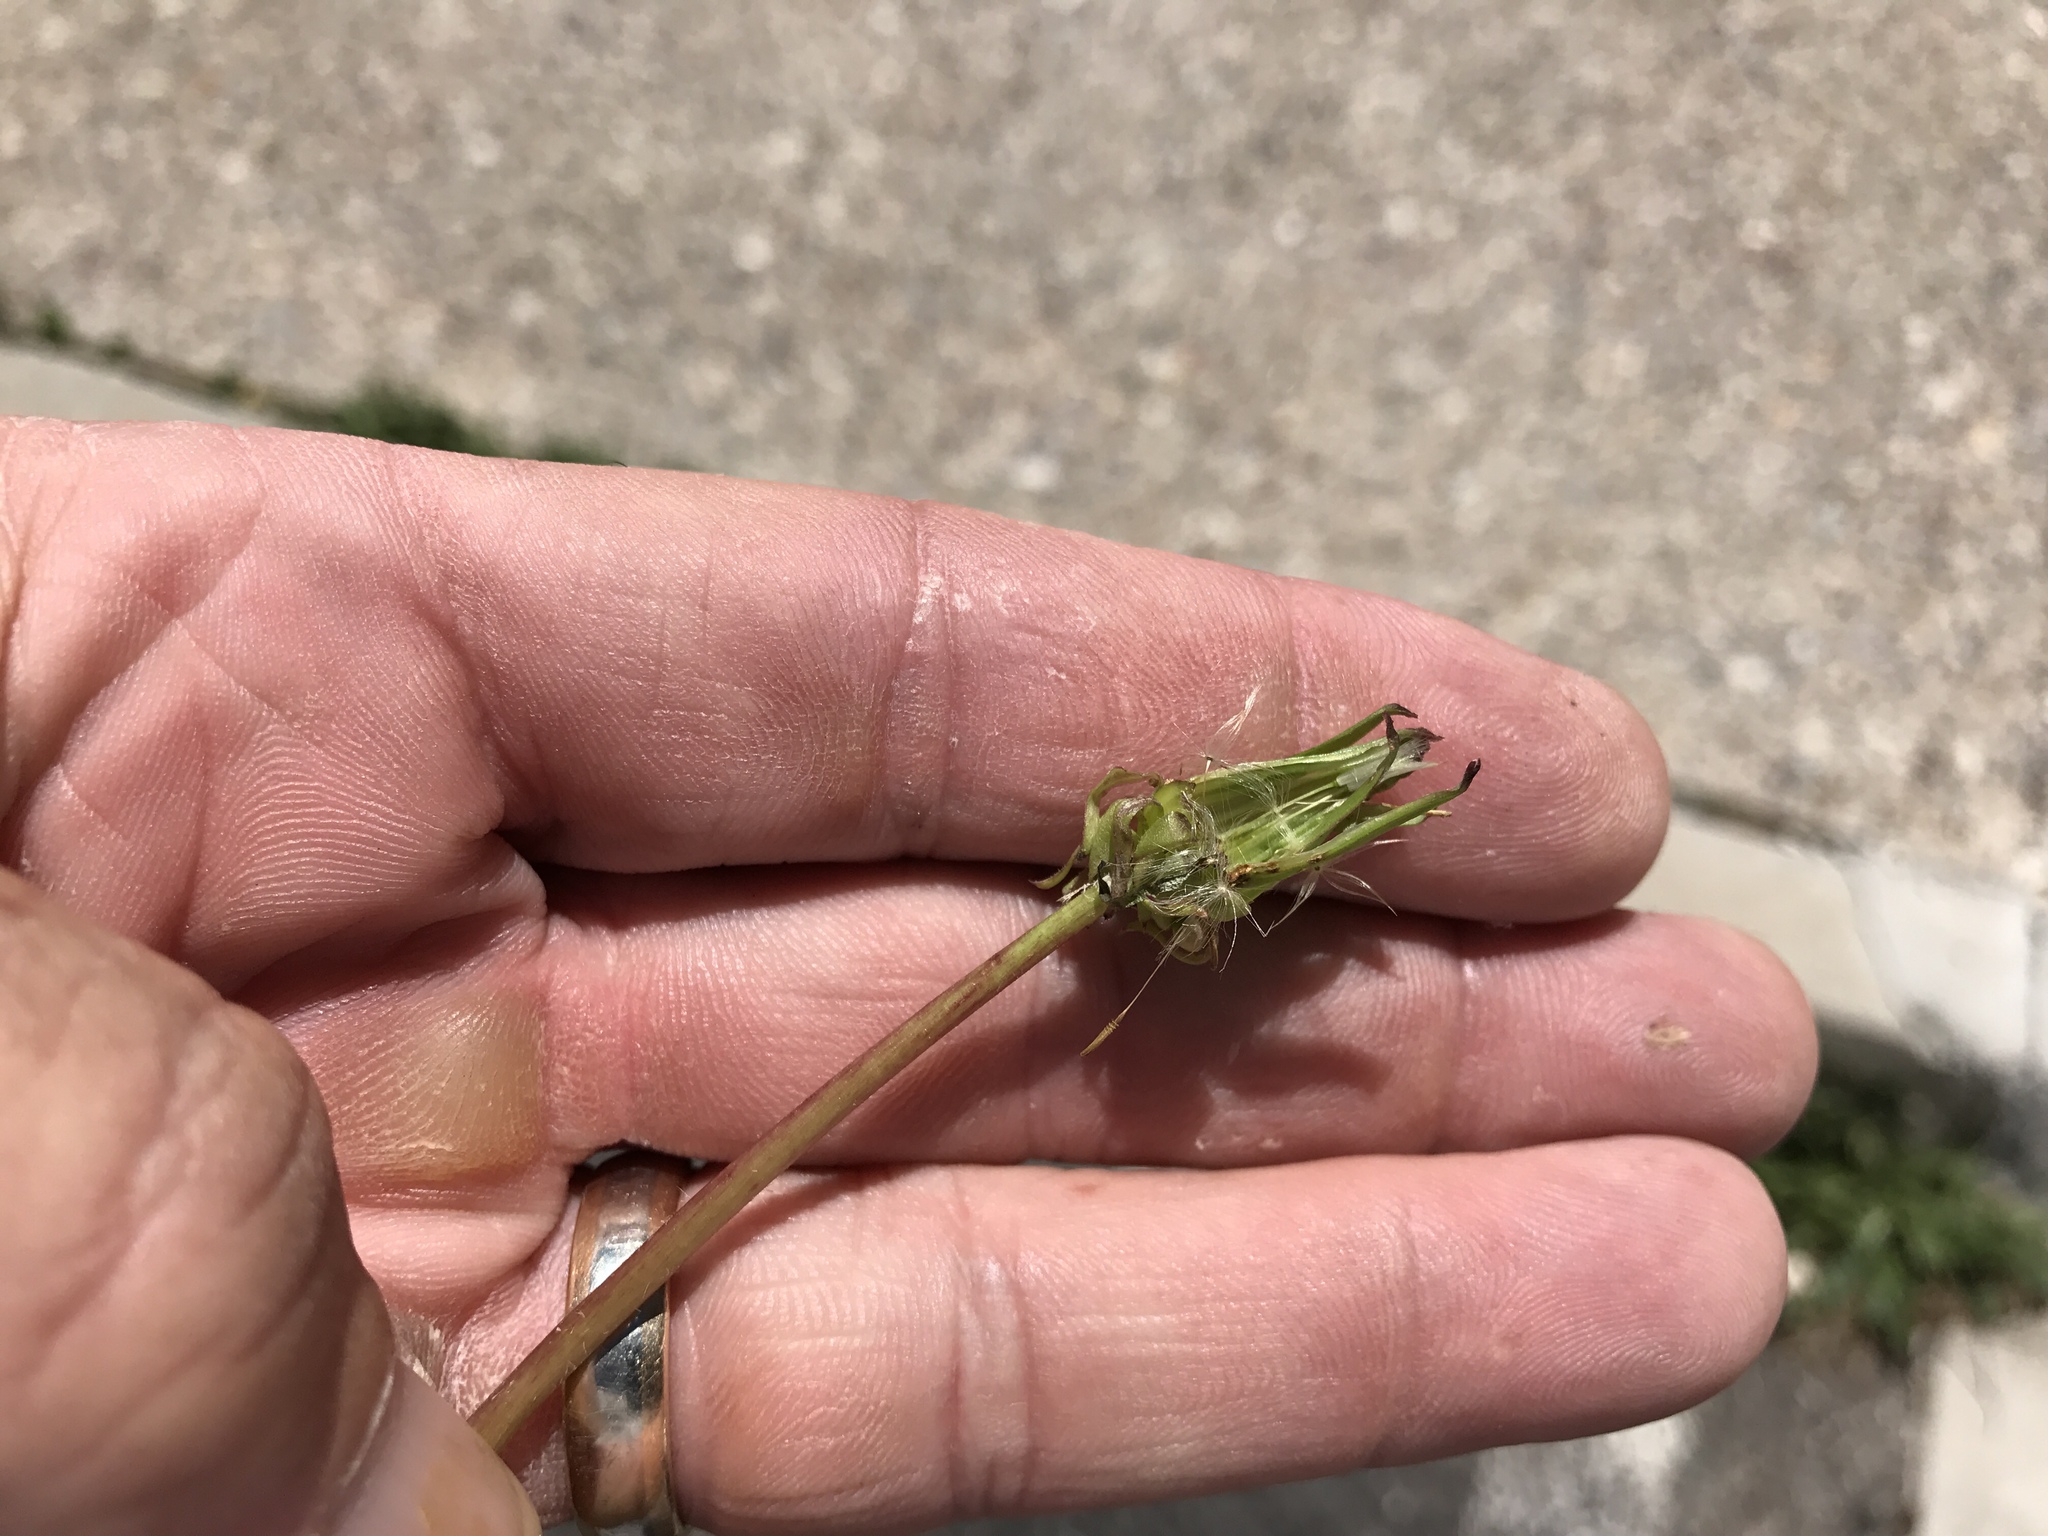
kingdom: Plantae
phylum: Tracheophyta
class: Magnoliopsida
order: Asterales
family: Asteraceae
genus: Taraxacum
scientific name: Taraxacum officinale
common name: Common dandelion
